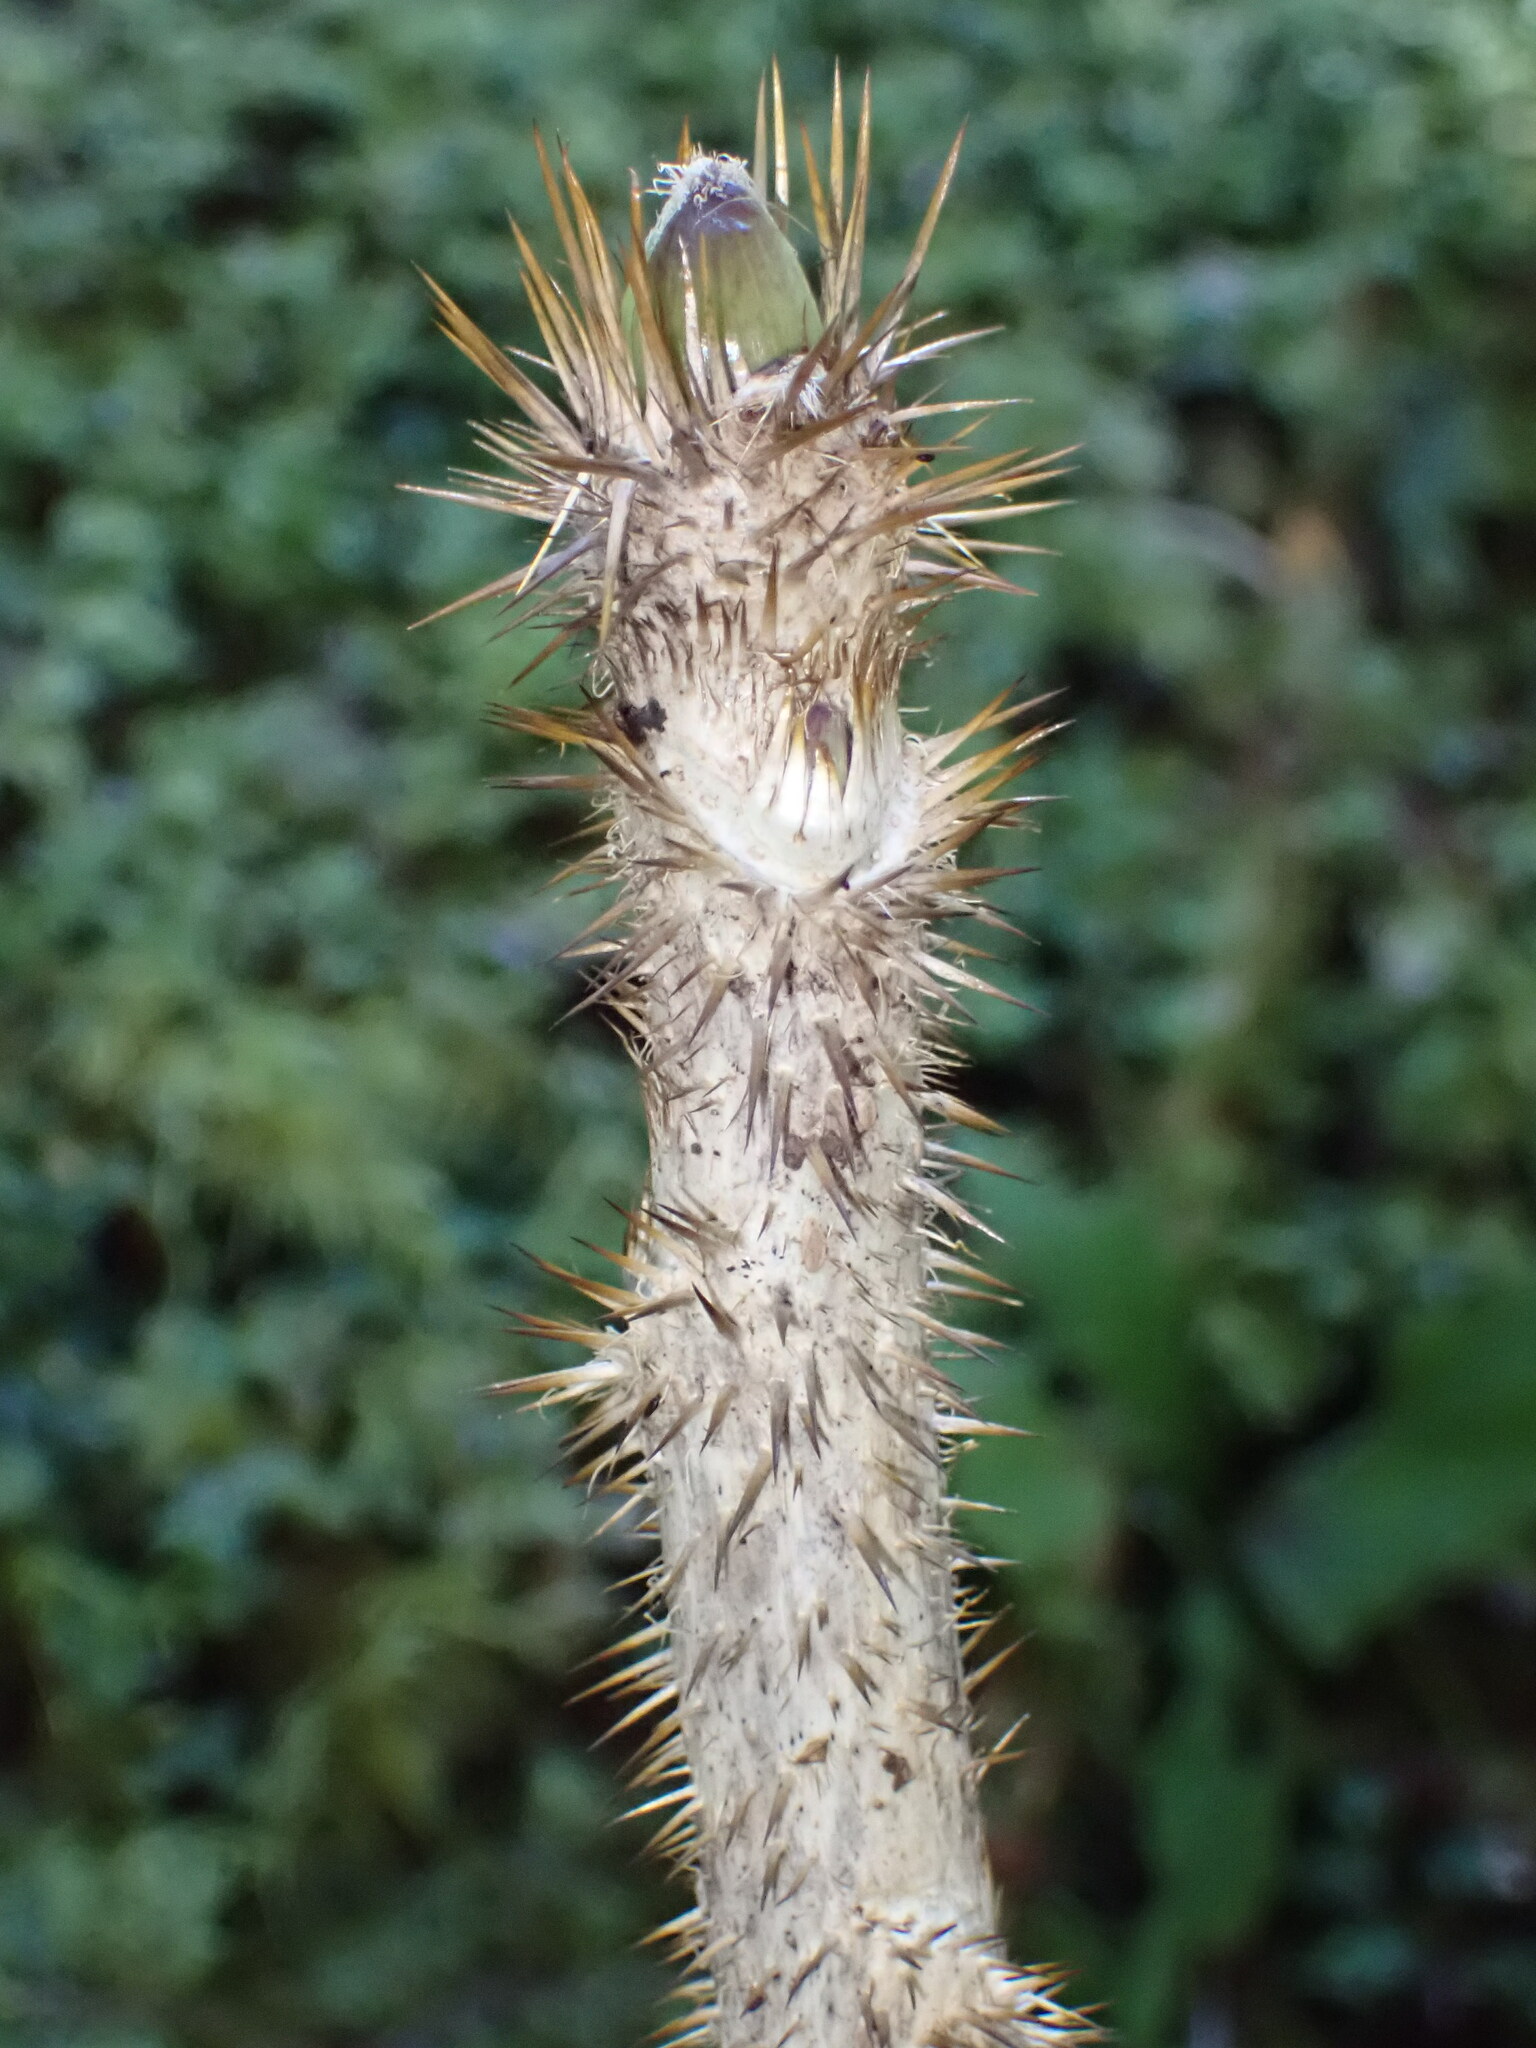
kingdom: Plantae
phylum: Tracheophyta
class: Magnoliopsida
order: Apiales
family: Araliaceae
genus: Oplopanax
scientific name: Oplopanax horridus
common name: Devil's walking-stick
